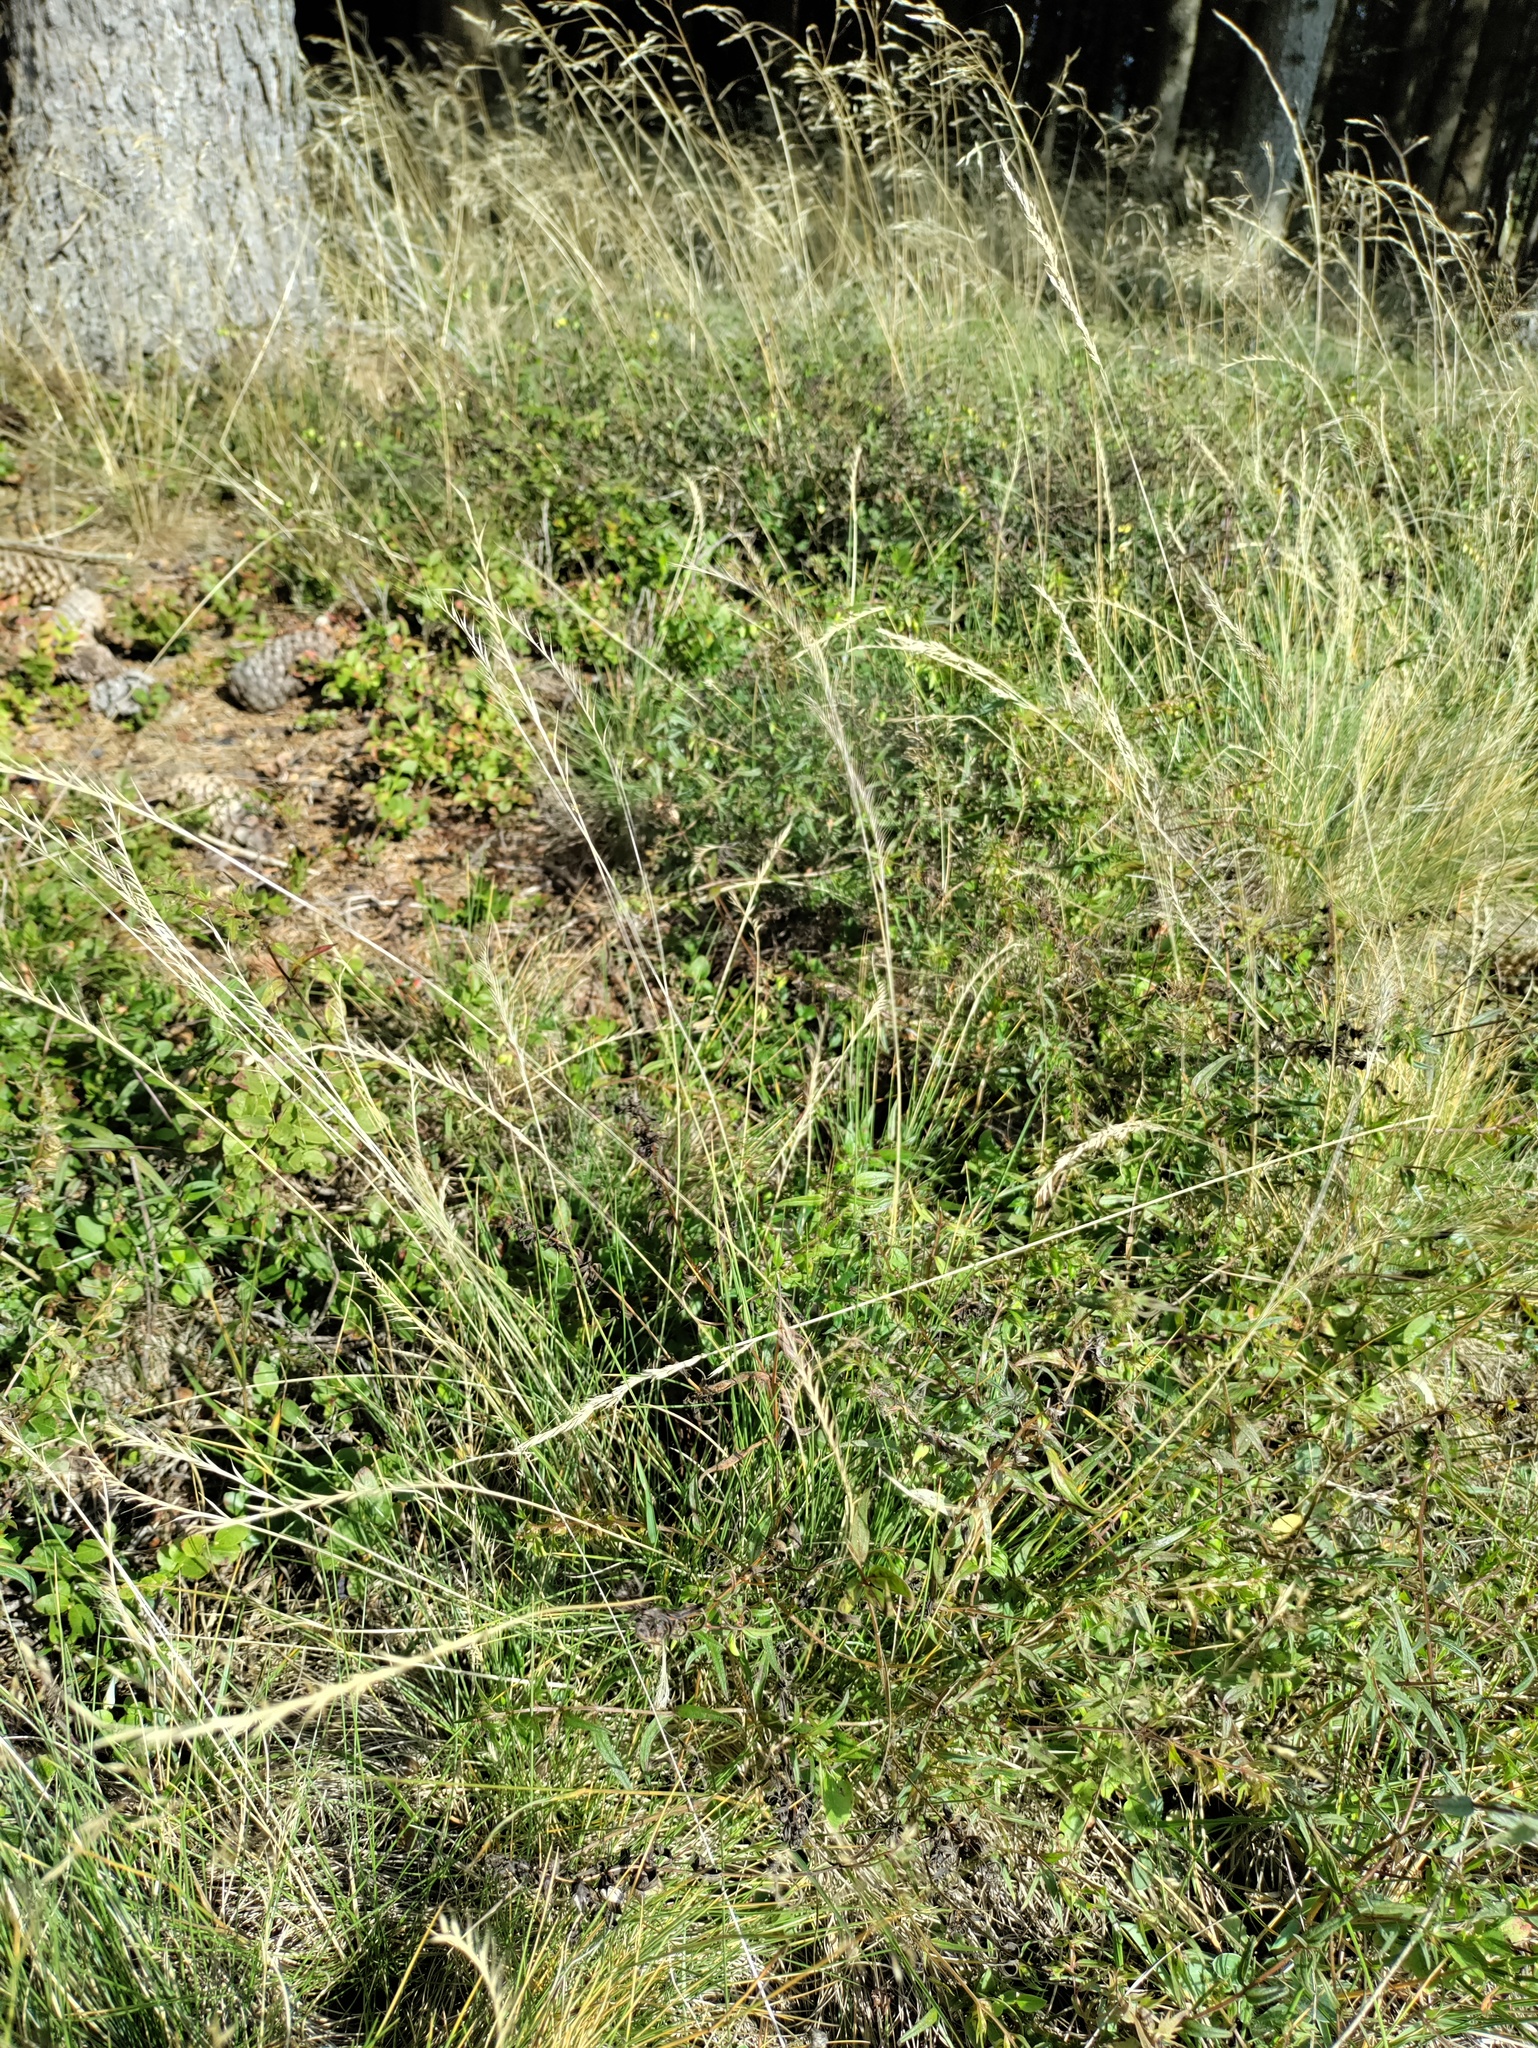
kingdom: Plantae
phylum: Tracheophyta
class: Liliopsida
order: Poales
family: Poaceae
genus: Nardus
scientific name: Nardus stricta
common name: Mat-grass
